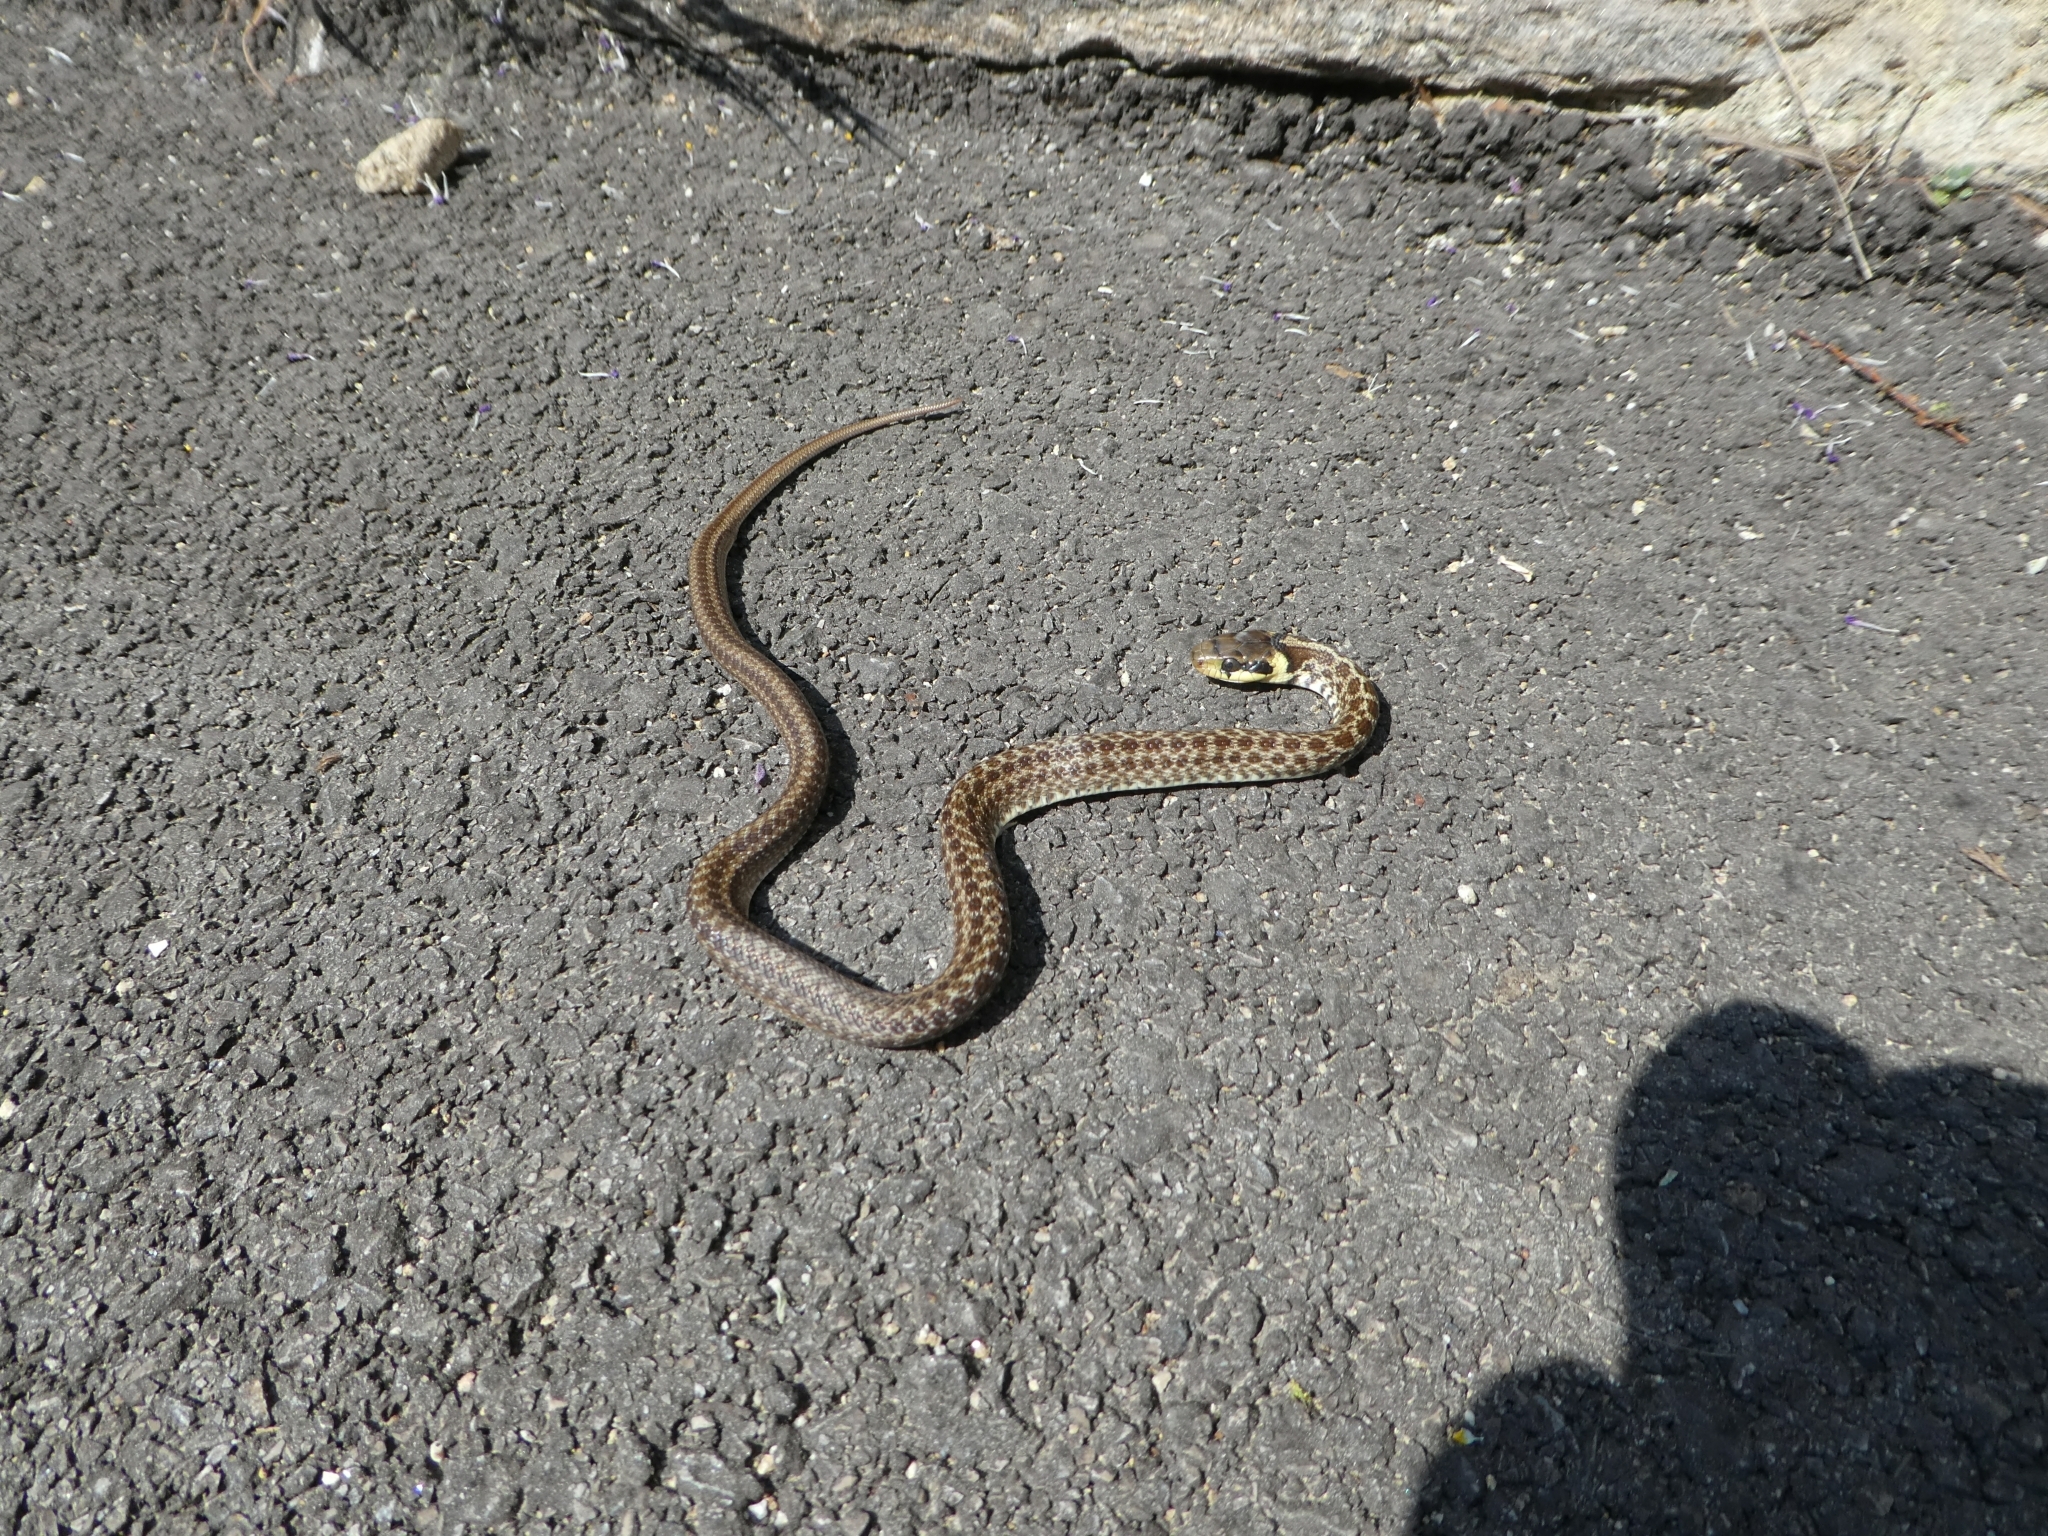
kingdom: Animalia
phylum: Chordata
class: Squamata
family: Colubridae
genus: Zamenis
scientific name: Zamenis longissimus
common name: Aesculapean snake
